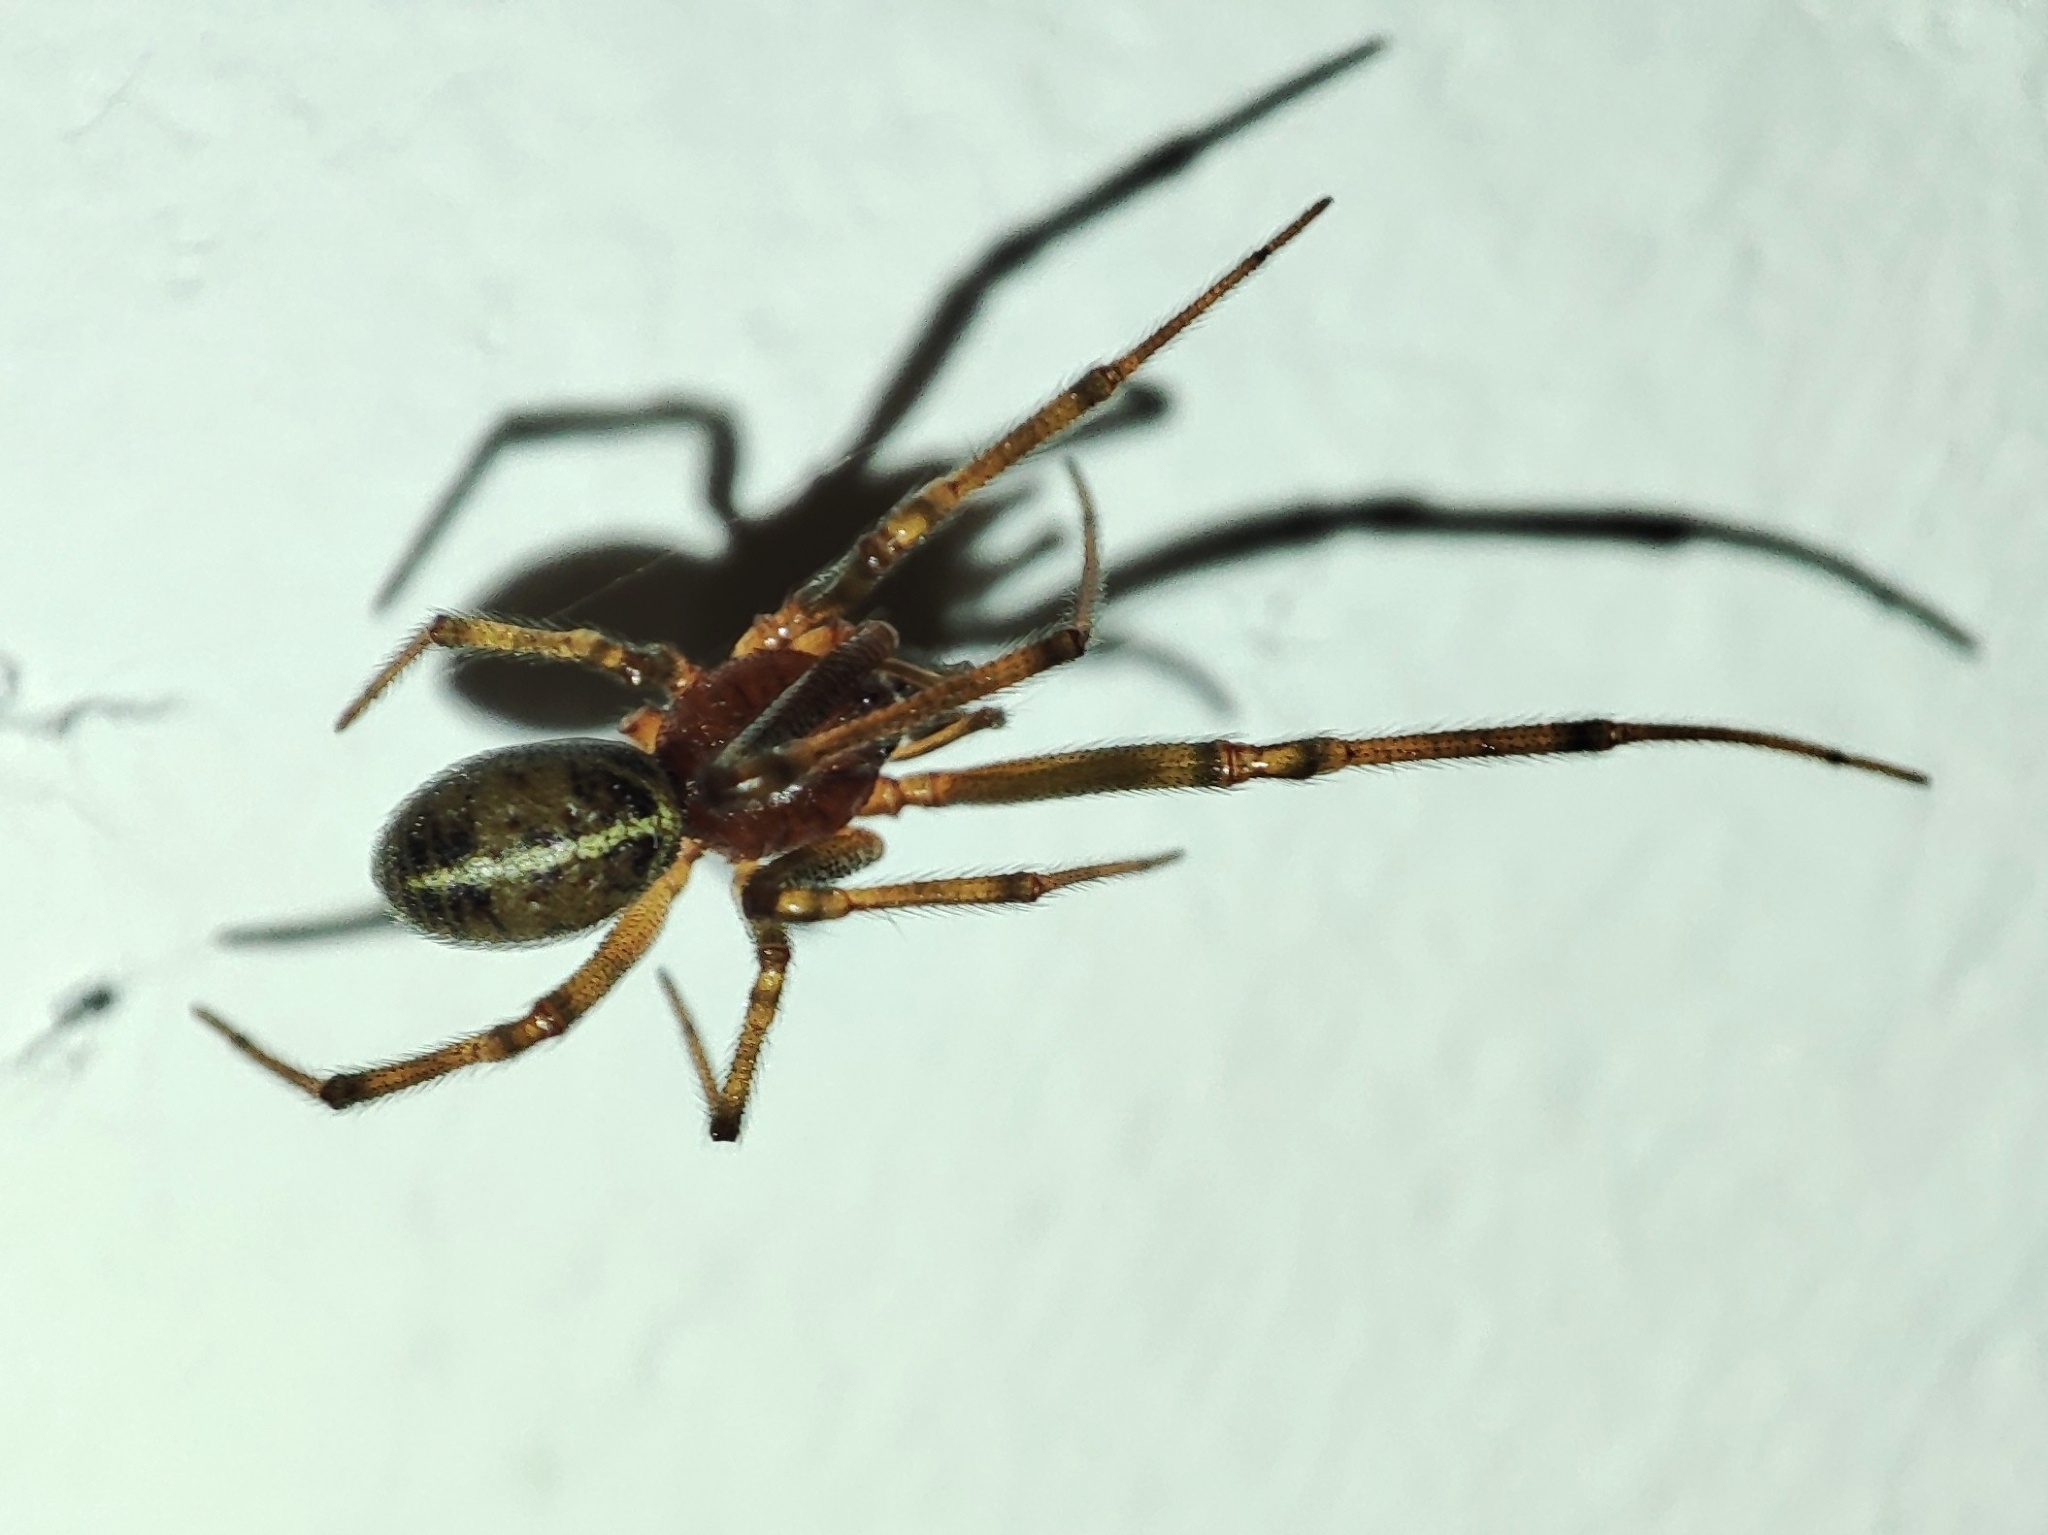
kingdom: Animalia
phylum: Arthropoda
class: Arachnida
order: Araneae
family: Theridiidae
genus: Steatoda
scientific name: Steatoda castanea
